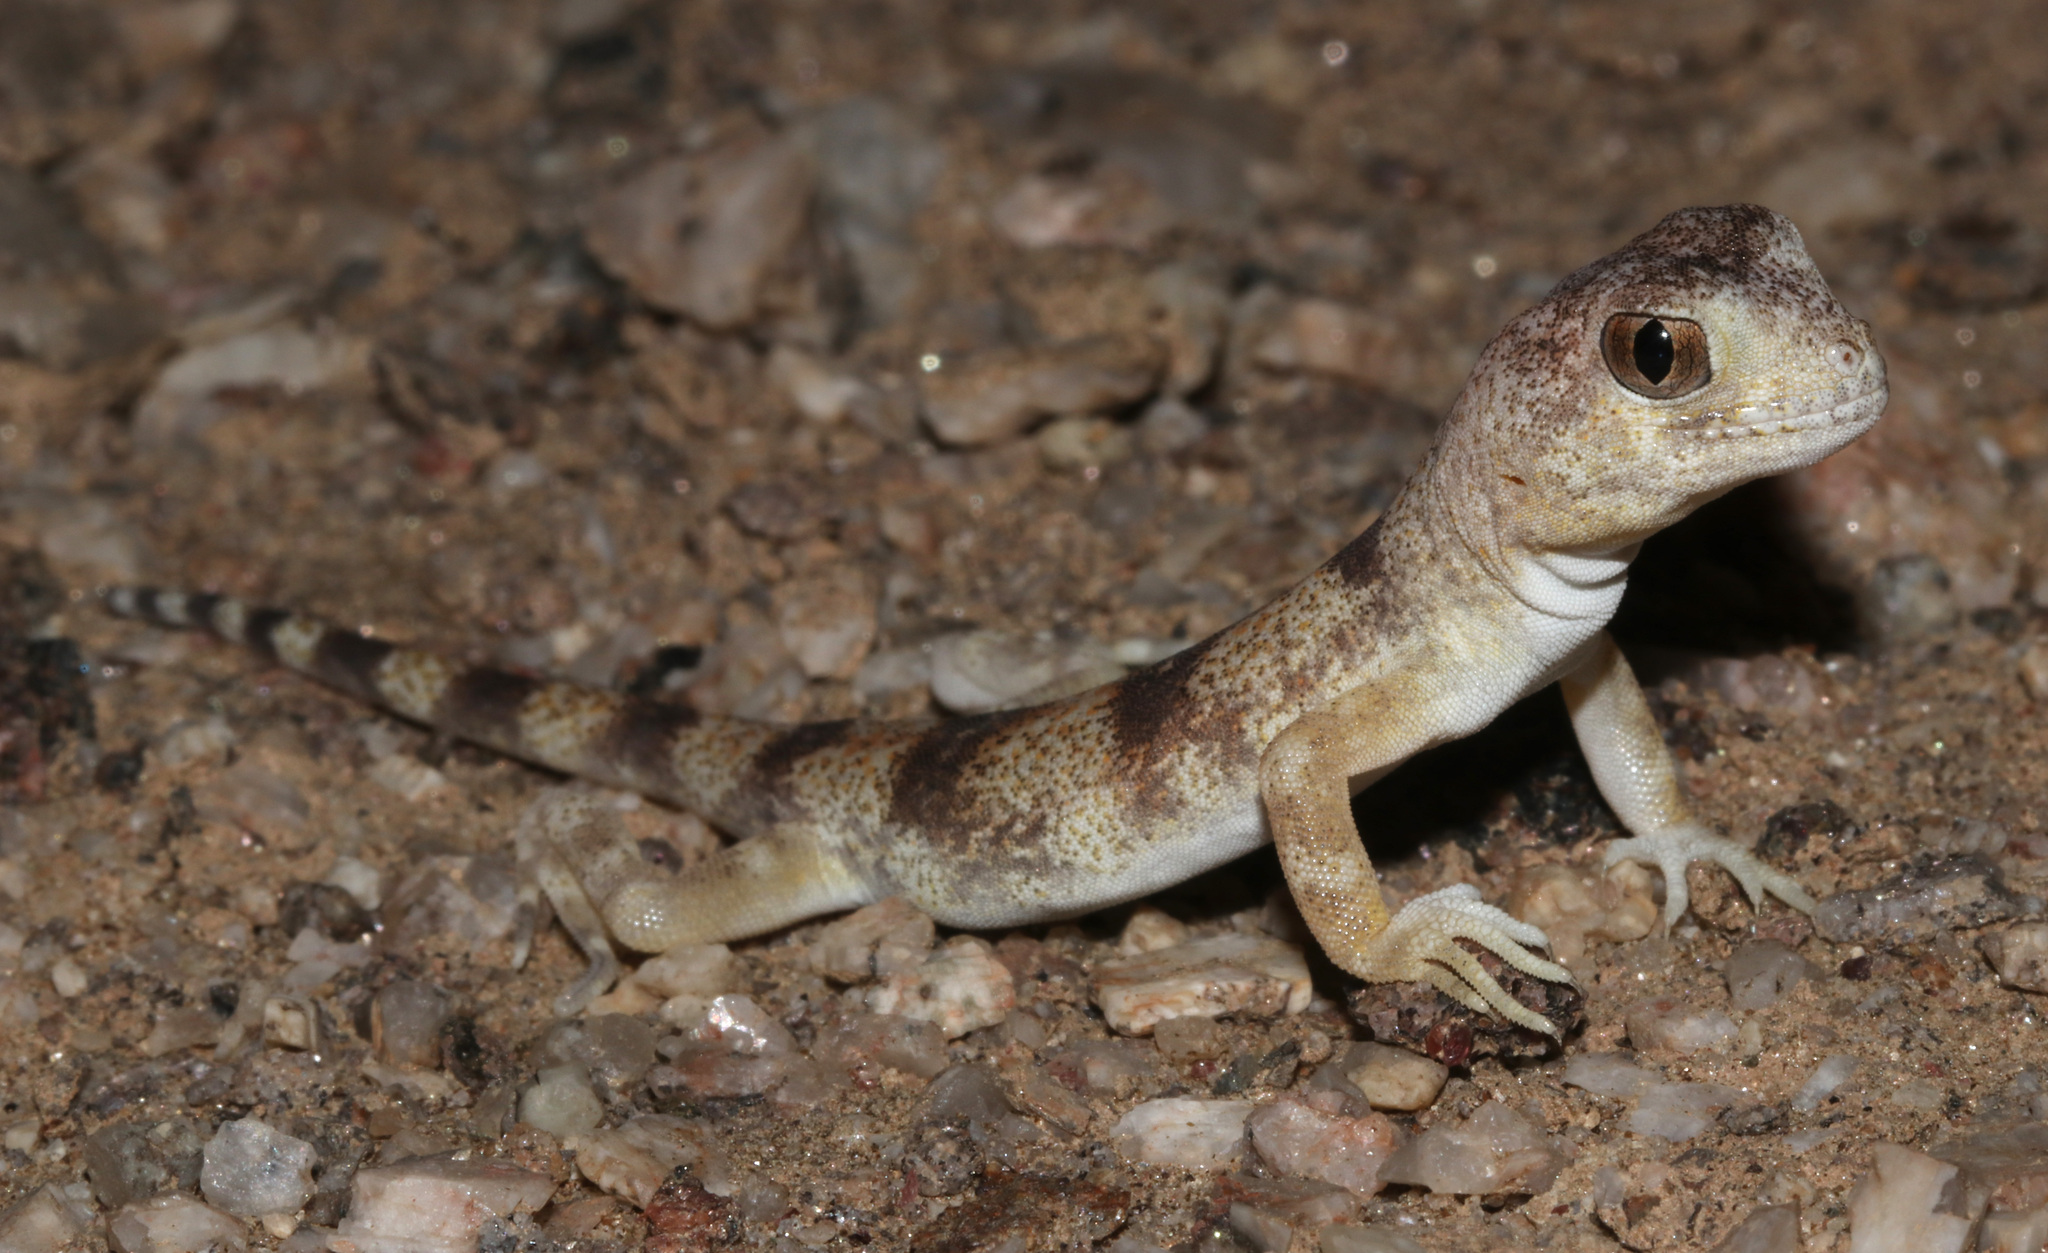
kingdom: Animalia
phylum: Chordata
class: Squamata
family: Gekkonidae
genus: Ptenopus
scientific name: Ptenopus carpi
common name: Namib chirping gecko
